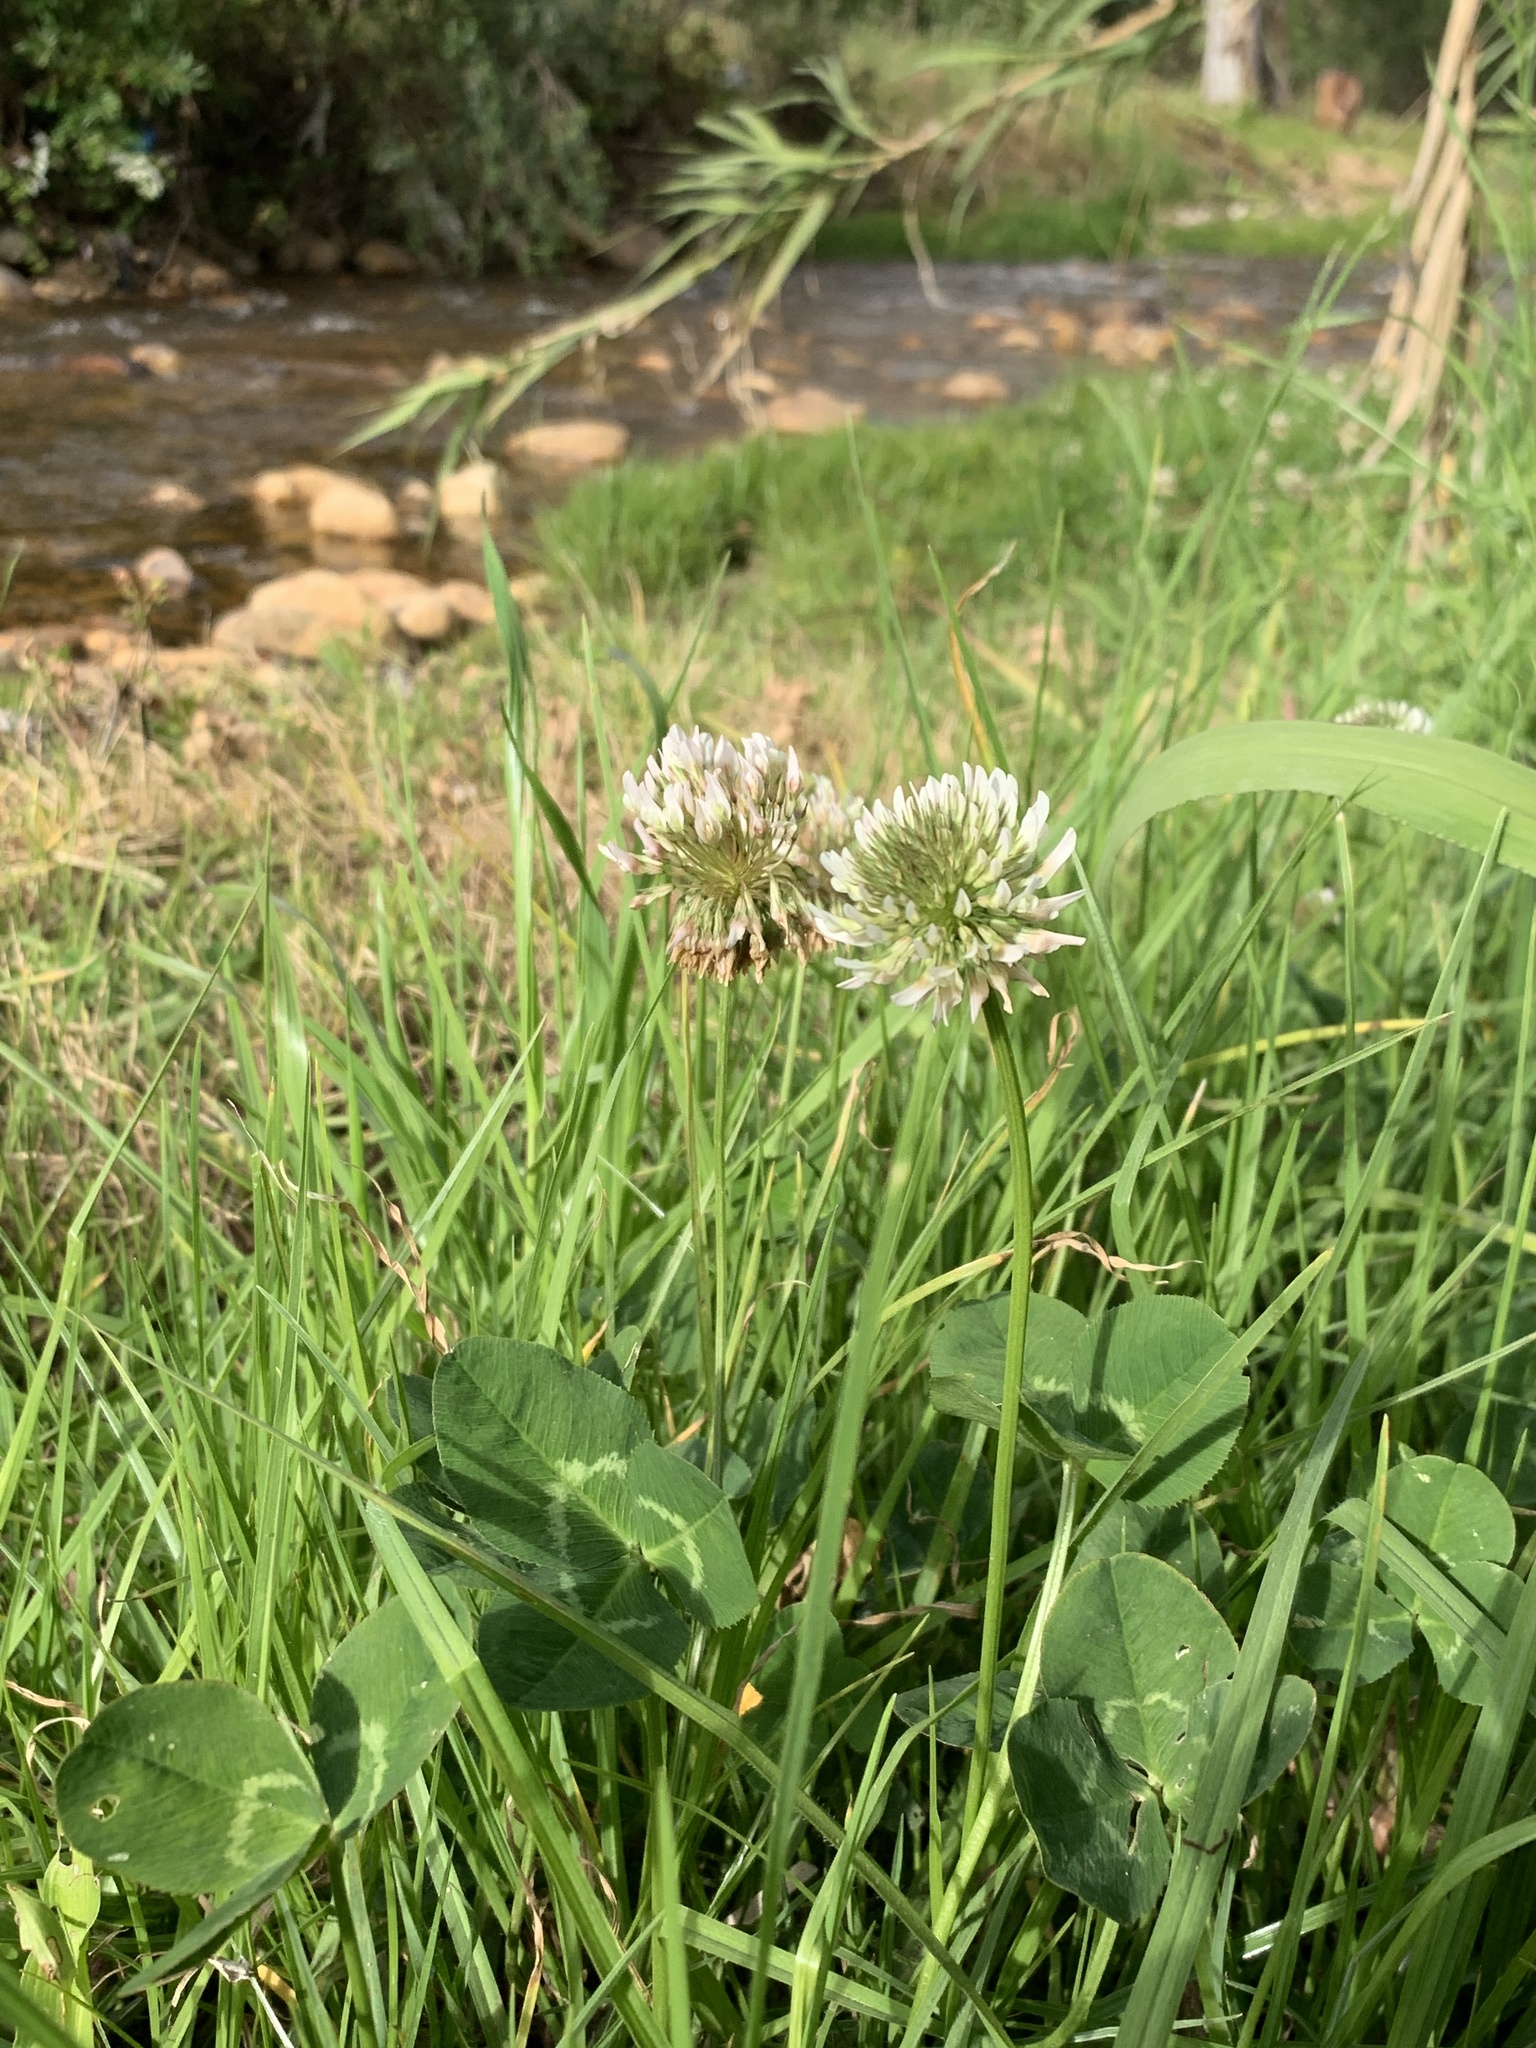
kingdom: Plantae
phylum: Tracheophyta
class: Magnoliopsida
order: Fabales
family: Fabaceae
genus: Trifolium
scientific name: Trifolium repens
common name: White clover
